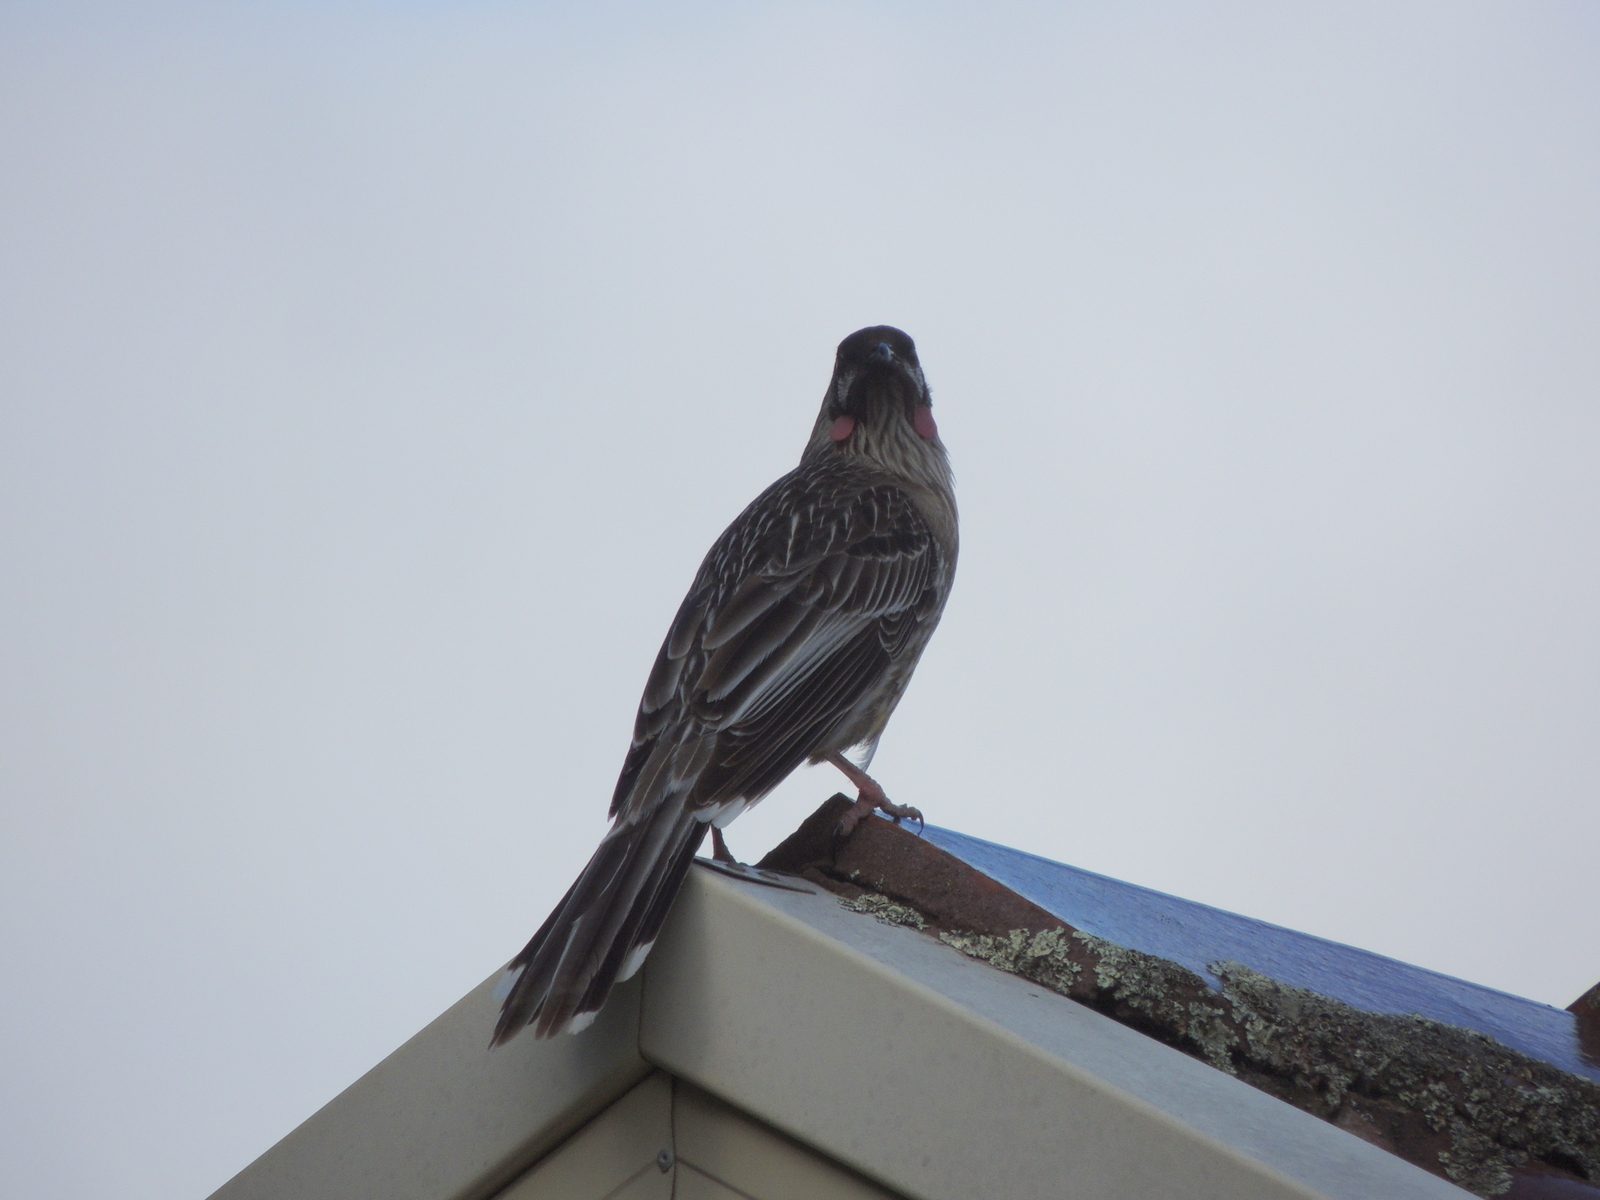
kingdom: Animalia
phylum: Chordata
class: Aves
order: Passeriformes
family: Meliphagidae
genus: Anthochaera
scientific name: Anthochaera carunculata
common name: Red wattlebird
